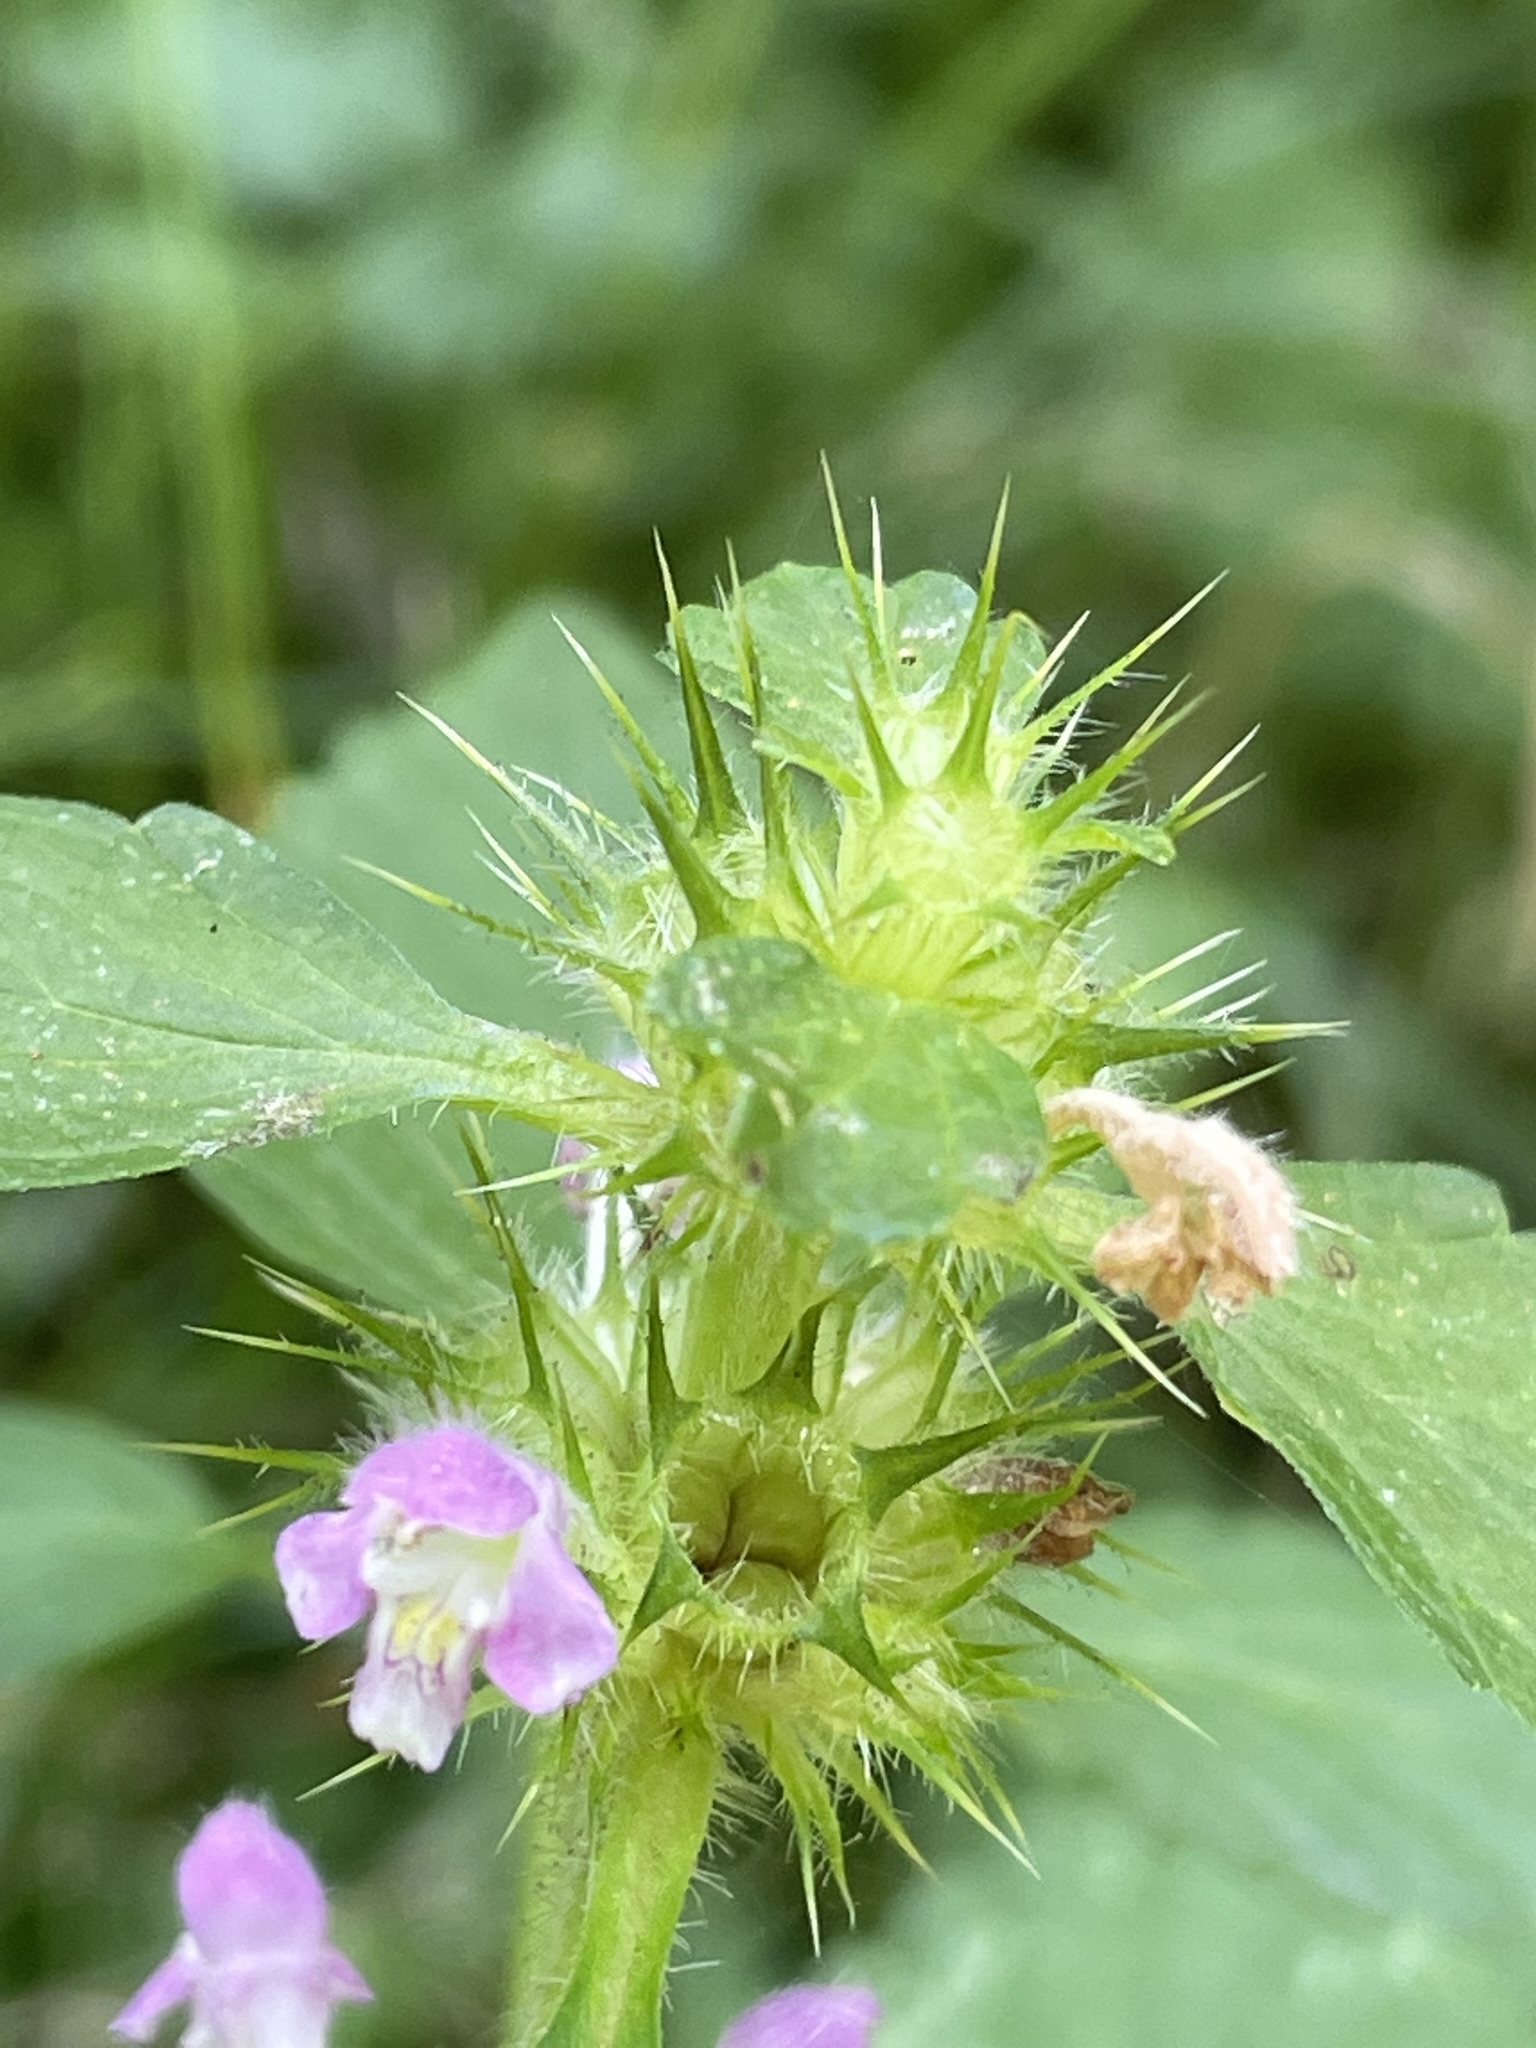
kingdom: Plantae
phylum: Tracheophyta
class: Magnoliopsida
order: Lamiales
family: Lamiaceae
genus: Galeopsis
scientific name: Galeopsis pubescens
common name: Downy hemp-nettle
